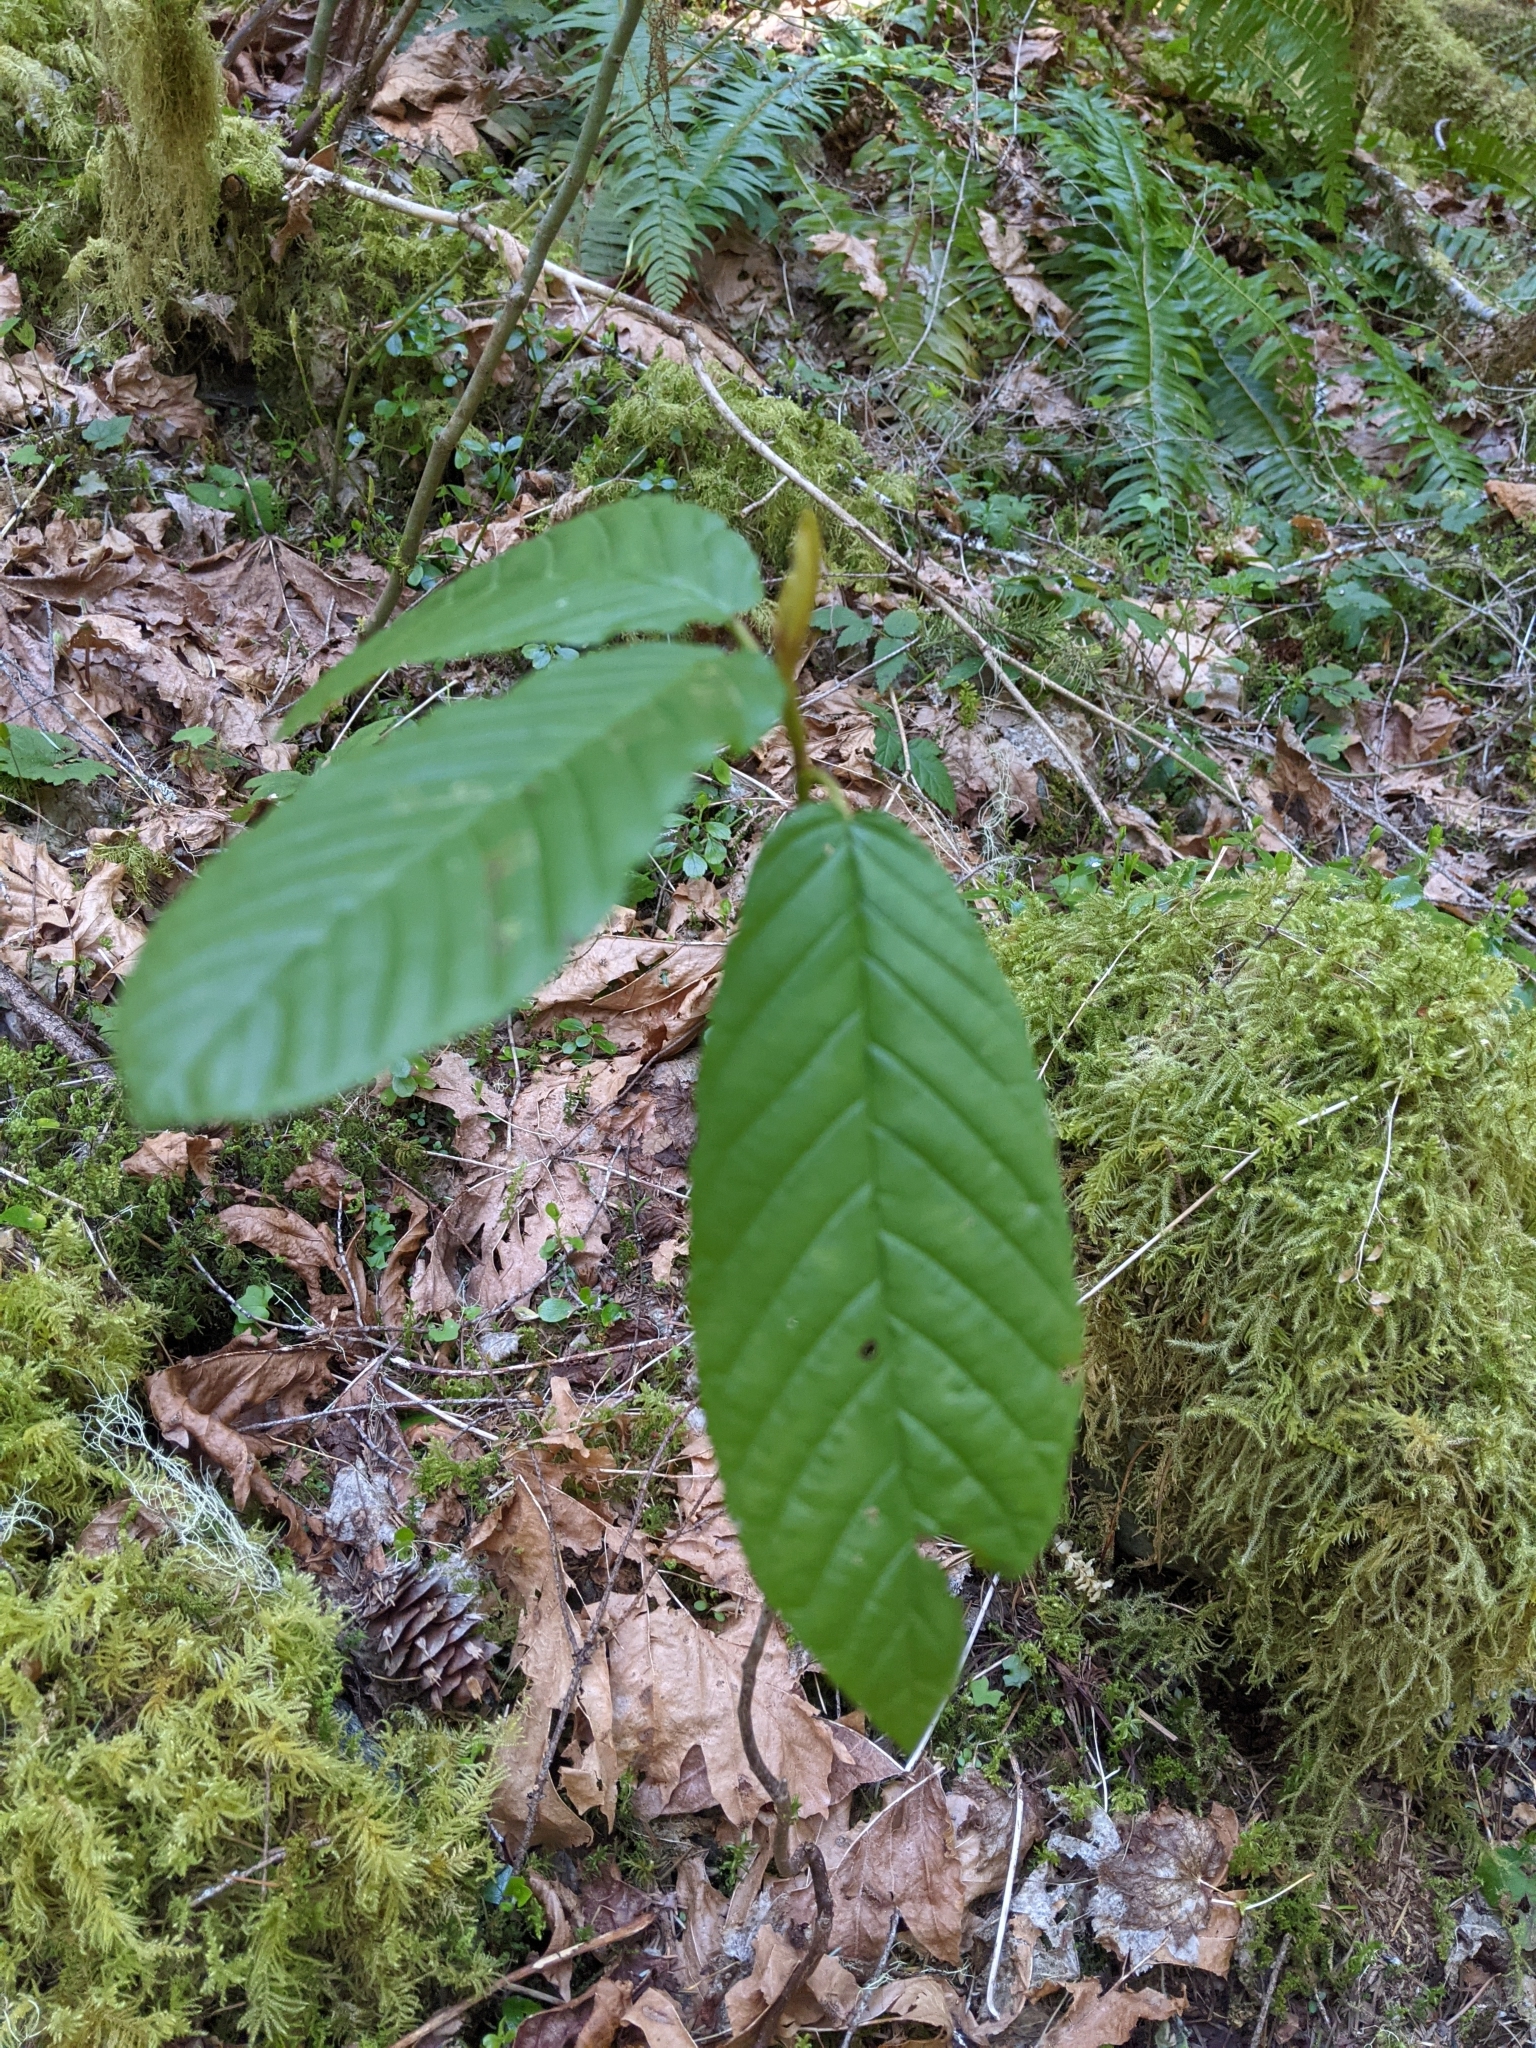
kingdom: Plantae
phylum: Tracheophyta
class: Magnoliopsida
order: Rosales
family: Rhamnaceae
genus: Frangula
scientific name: Frangula purshiana
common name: Cascara buckthorn
